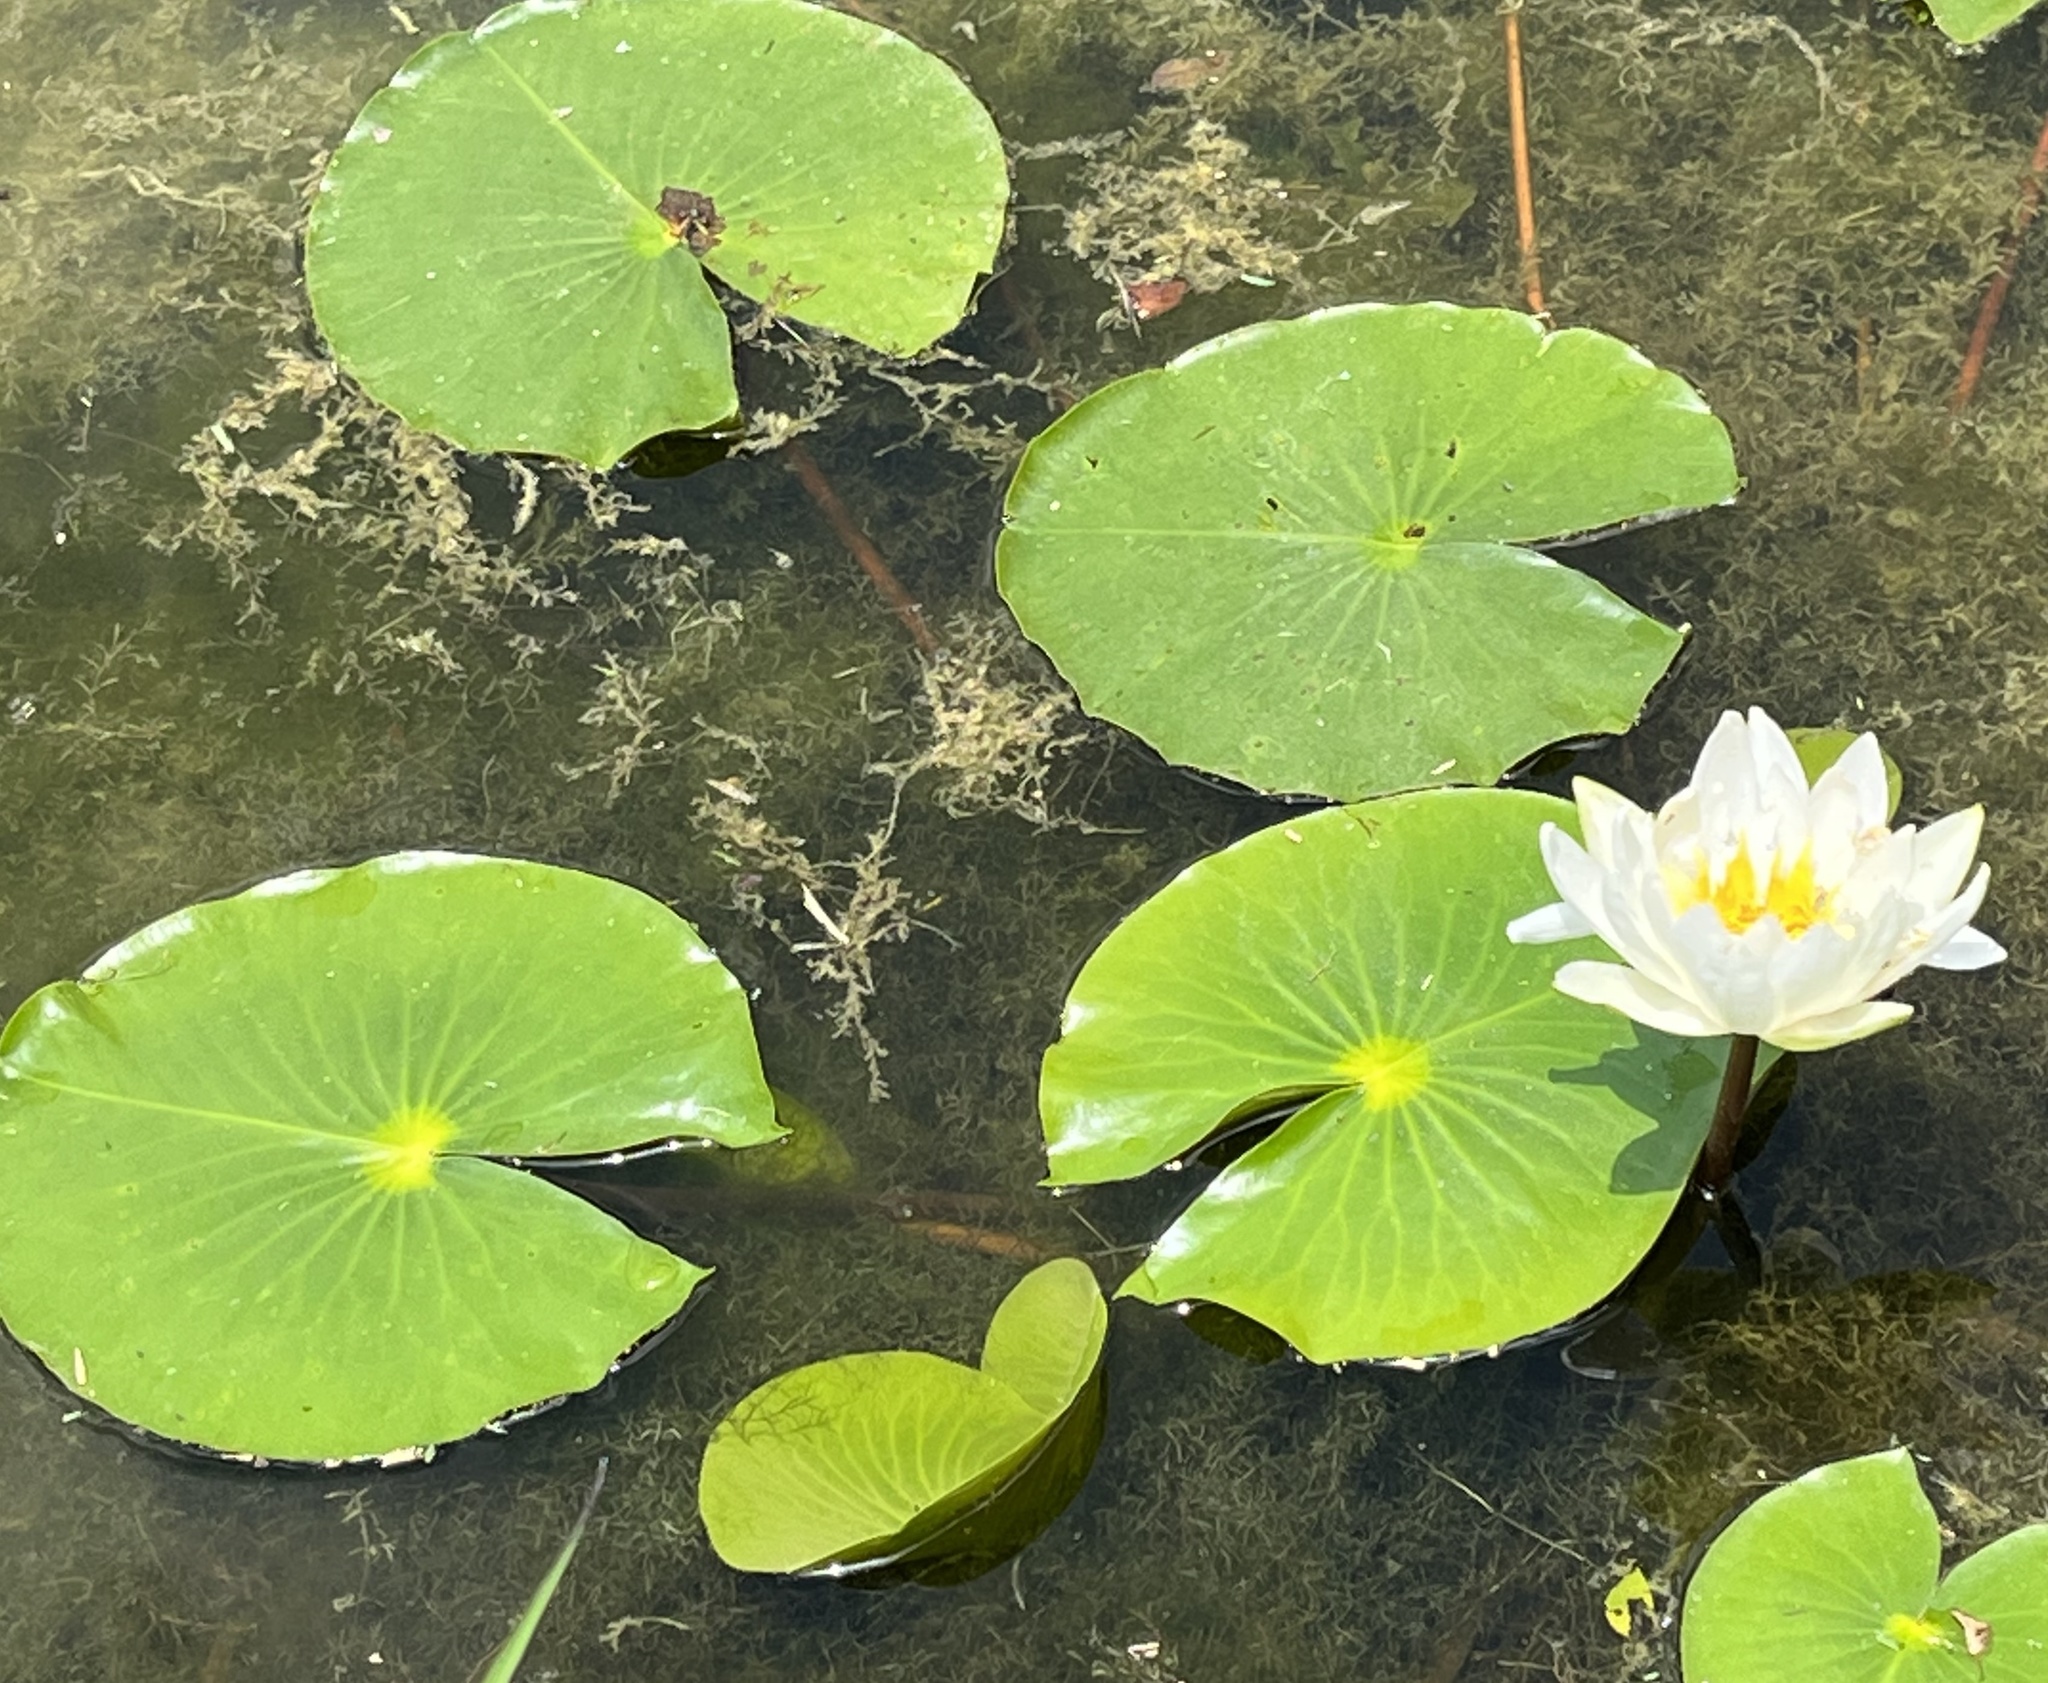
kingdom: Plantae
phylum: Tracheophyta
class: Magnoliopsida
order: Nymphaeales
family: Nymphaeaceae
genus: Nymphaea
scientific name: Nymphaea odorata
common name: Fragrant water-lily
